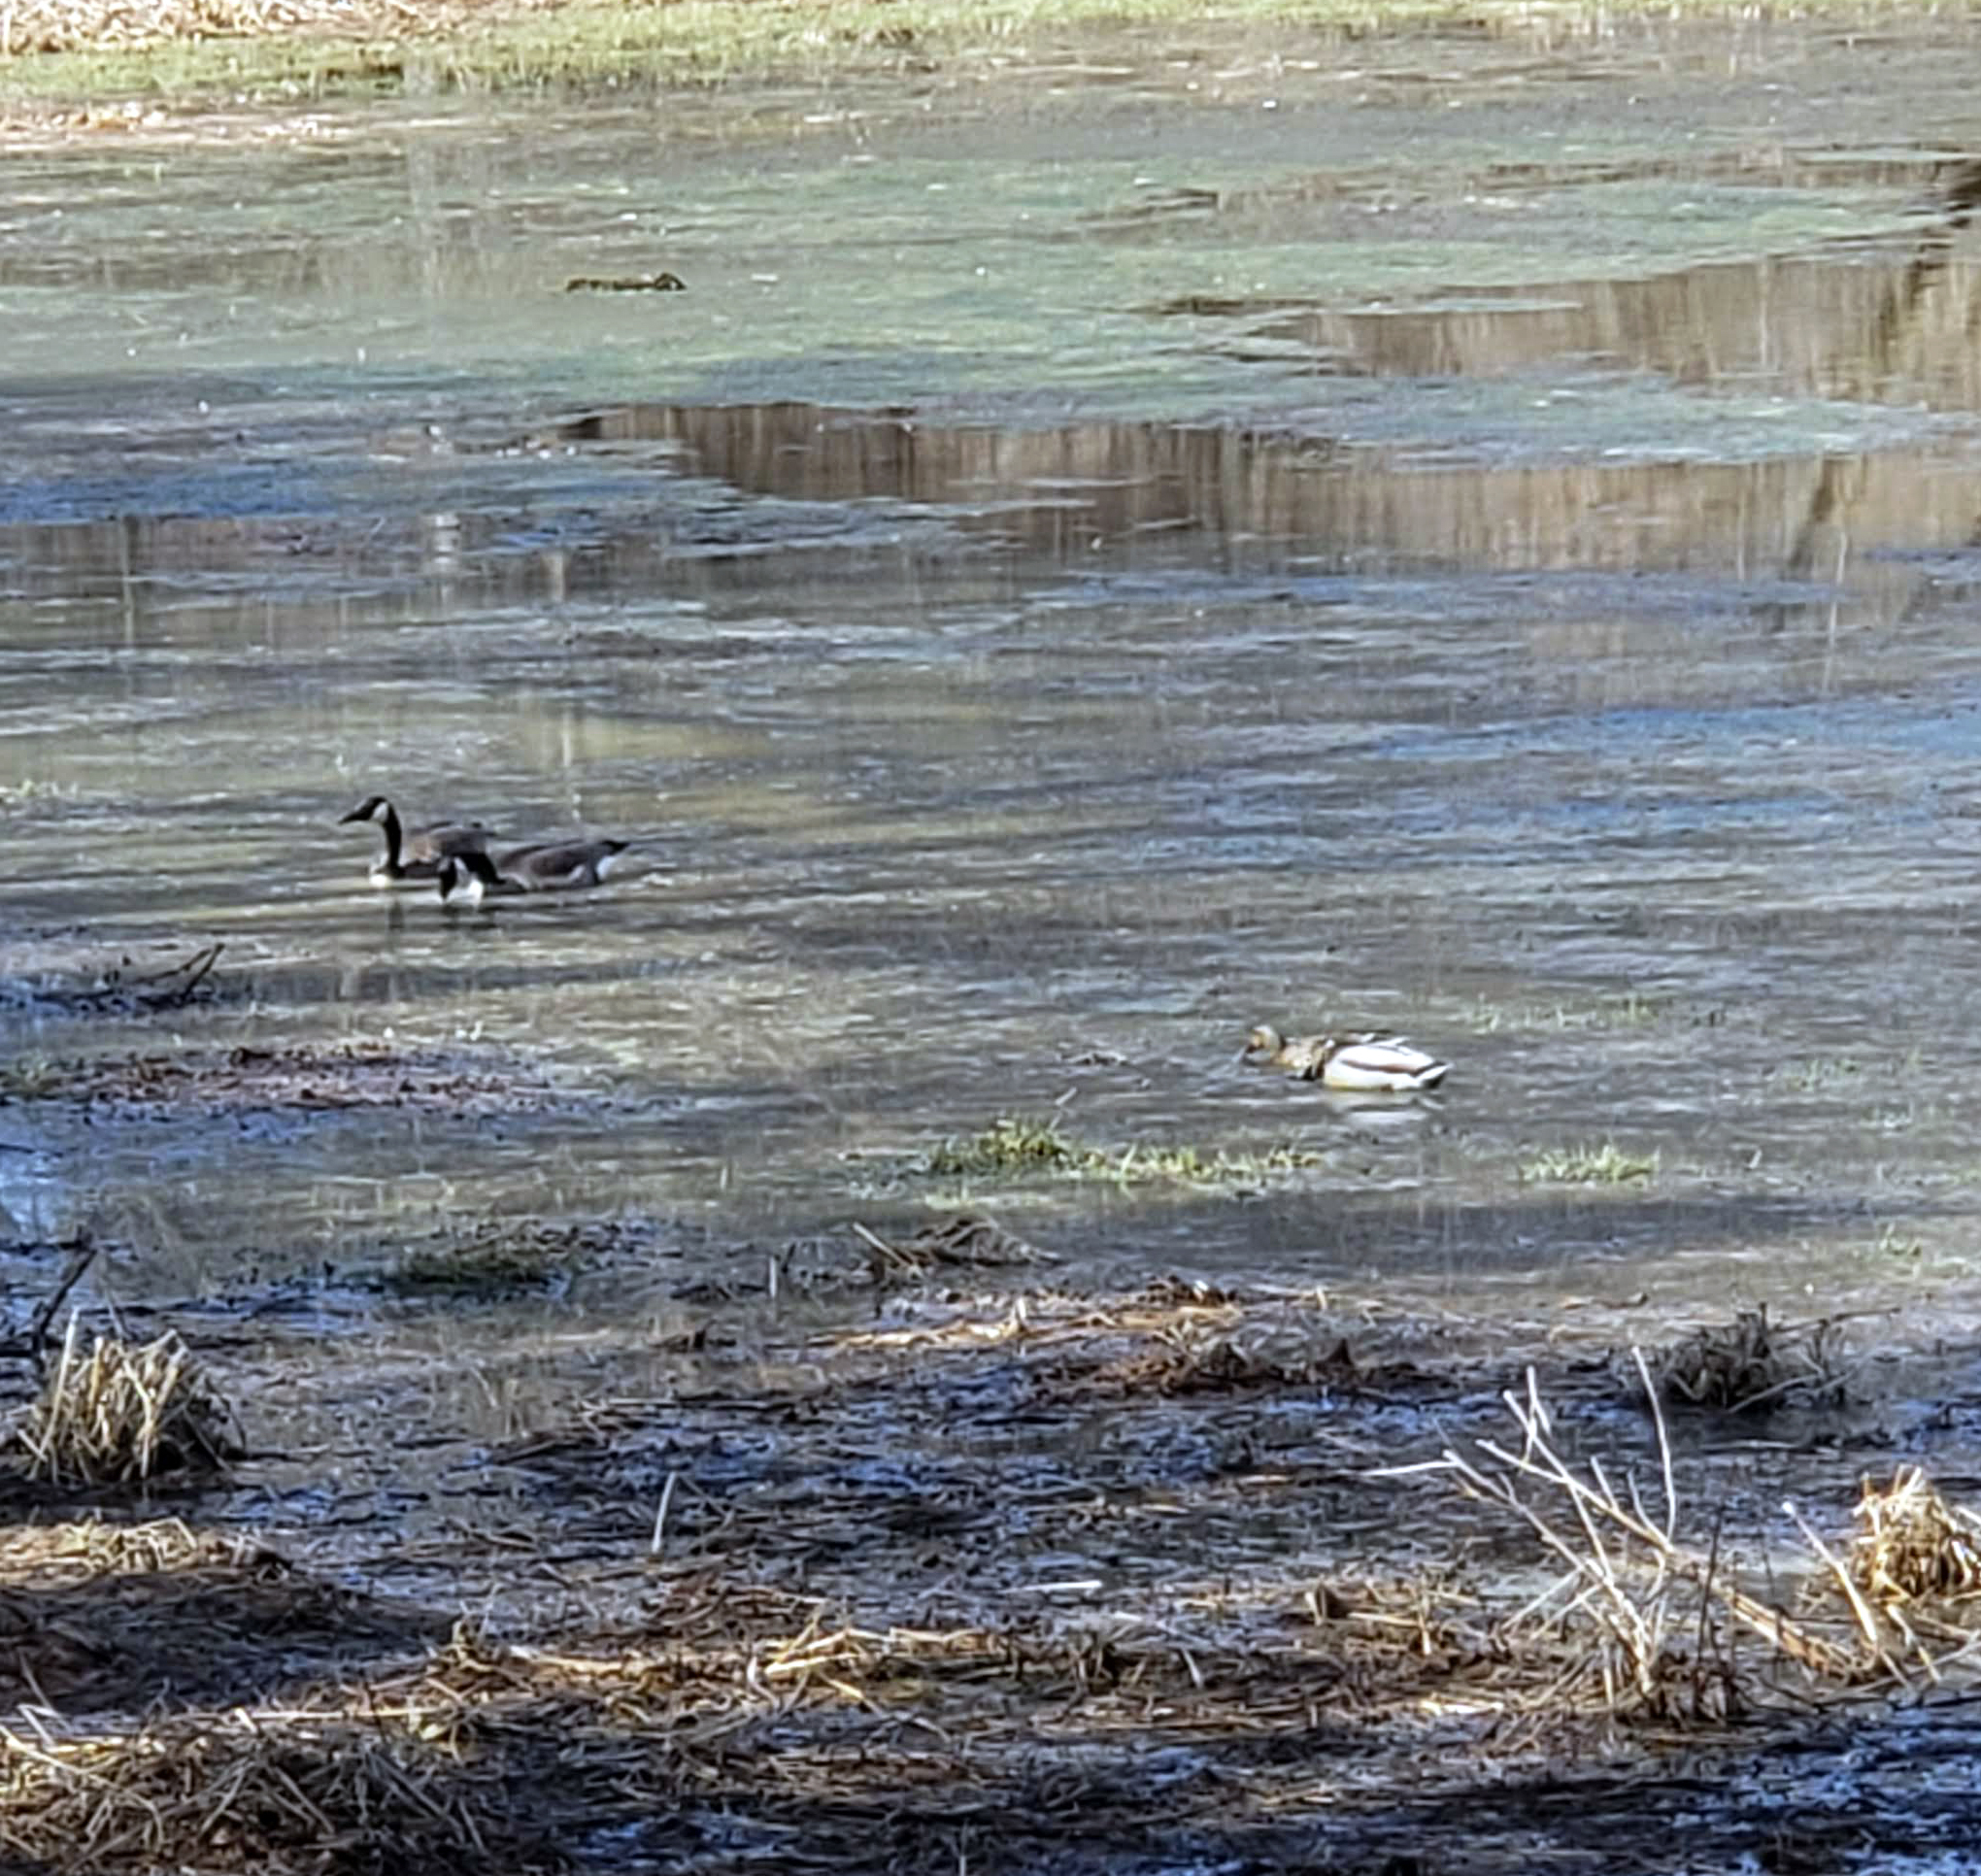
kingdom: Animalia
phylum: Chordata
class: Aves
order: Anseriformes
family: Anatidae
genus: Branta
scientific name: Branta canadensis
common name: Canada goose
